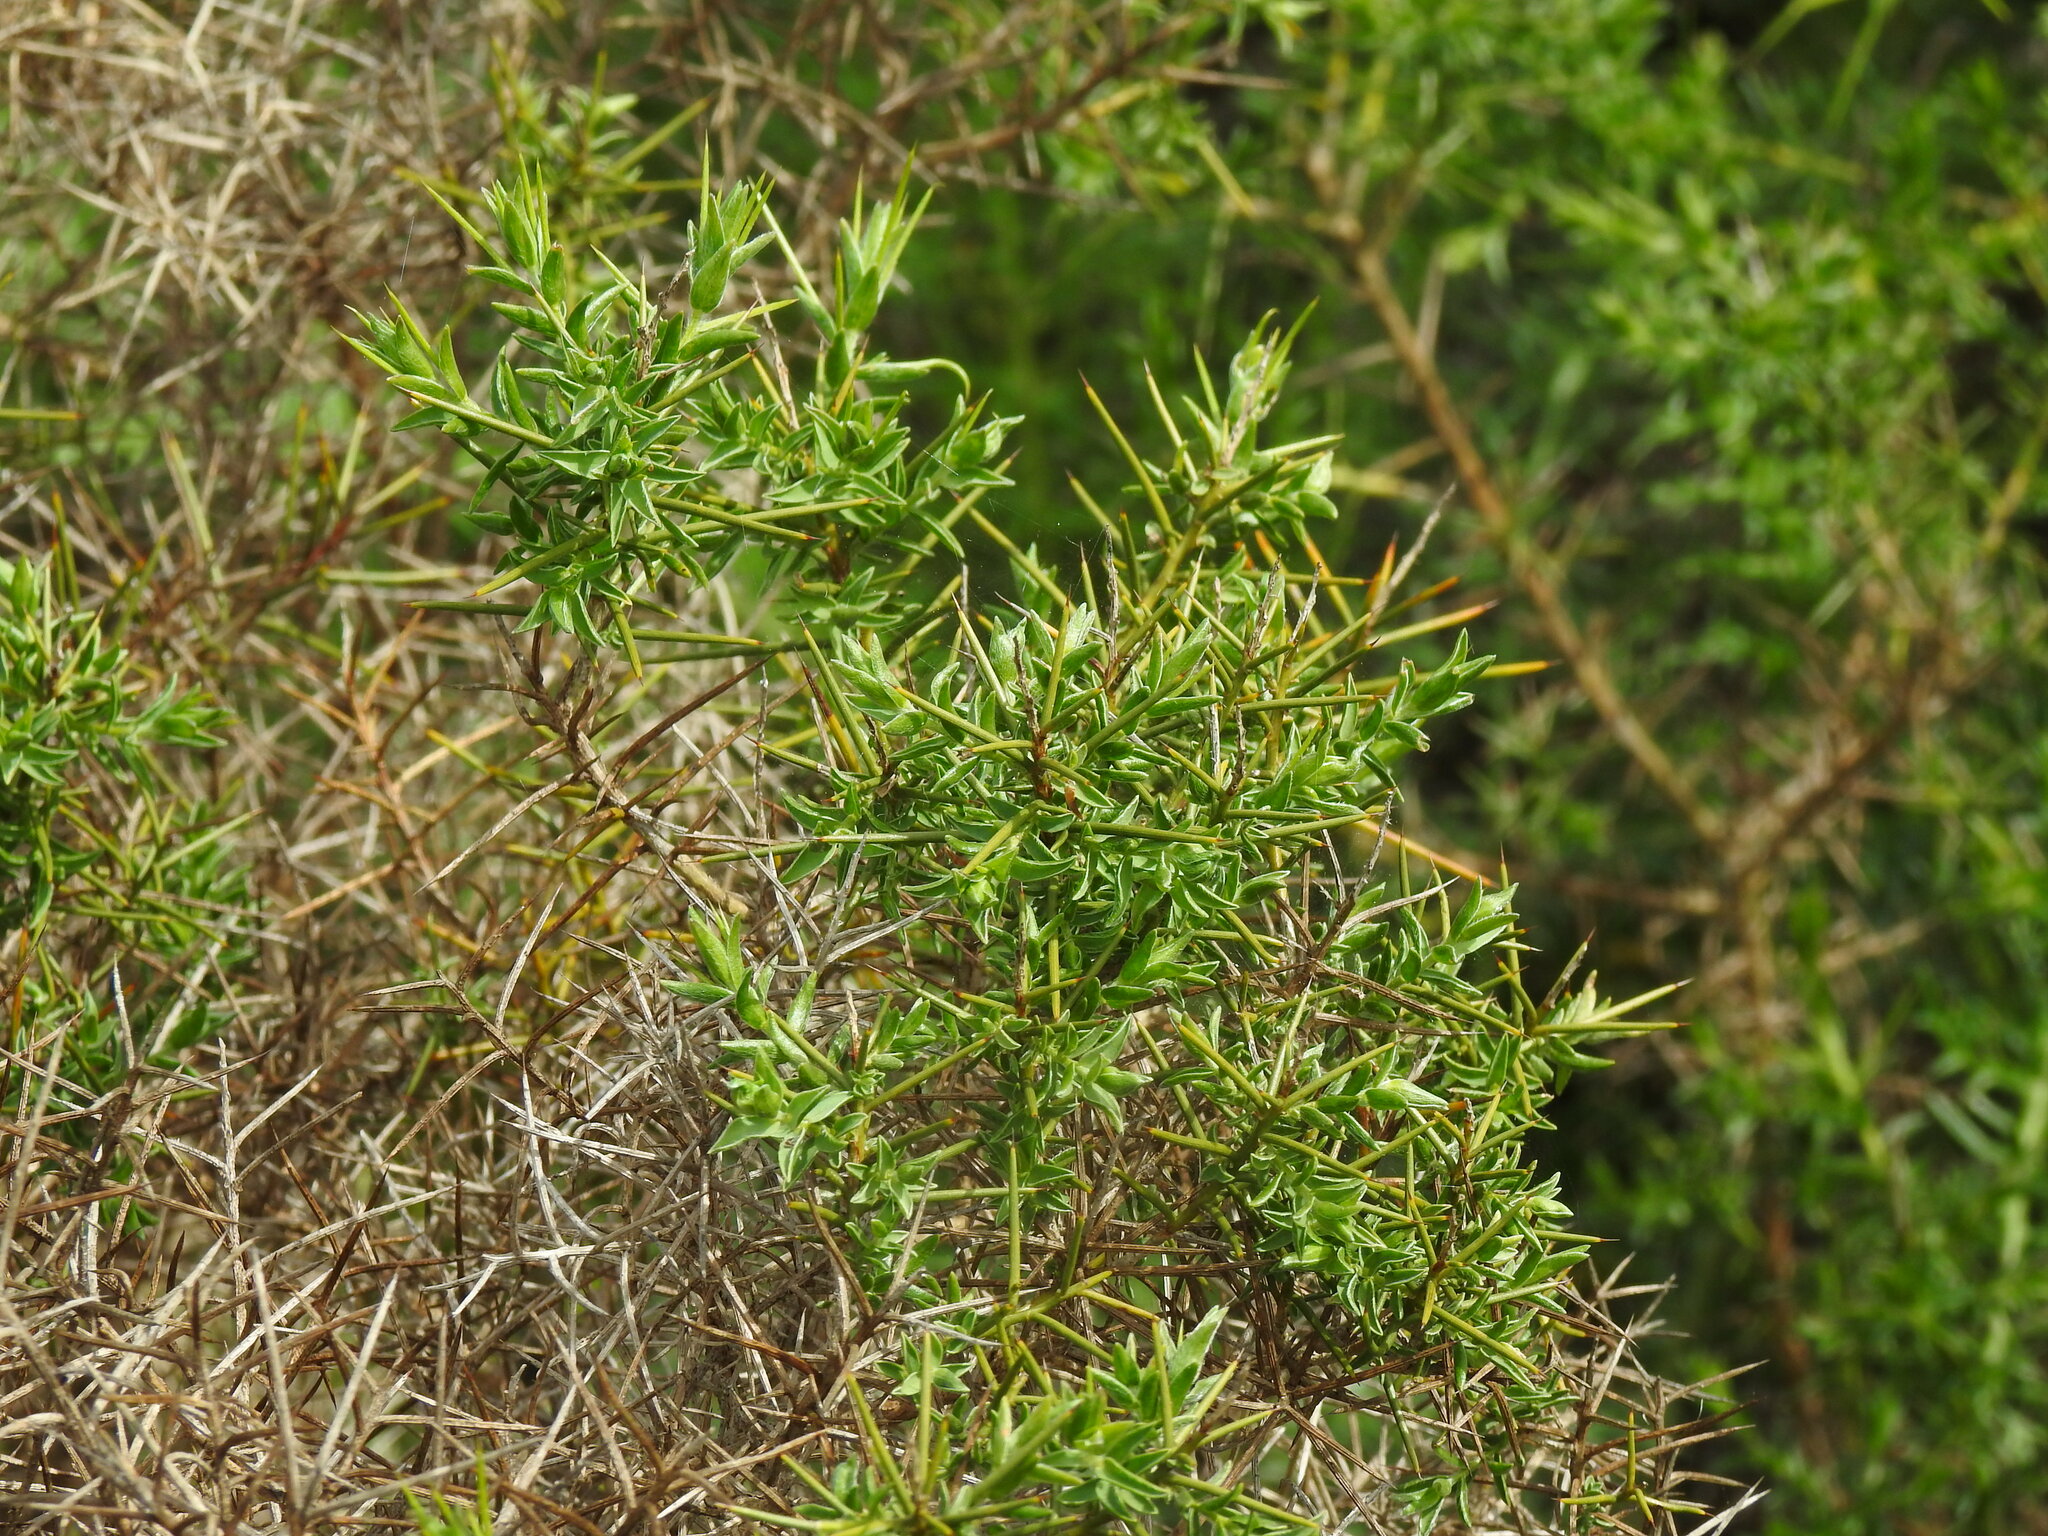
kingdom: Plantae
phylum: Tracheophyta
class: Magnoliopsida
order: Fabales
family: Fabaceae
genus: Genista
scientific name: Genista hirsuta
